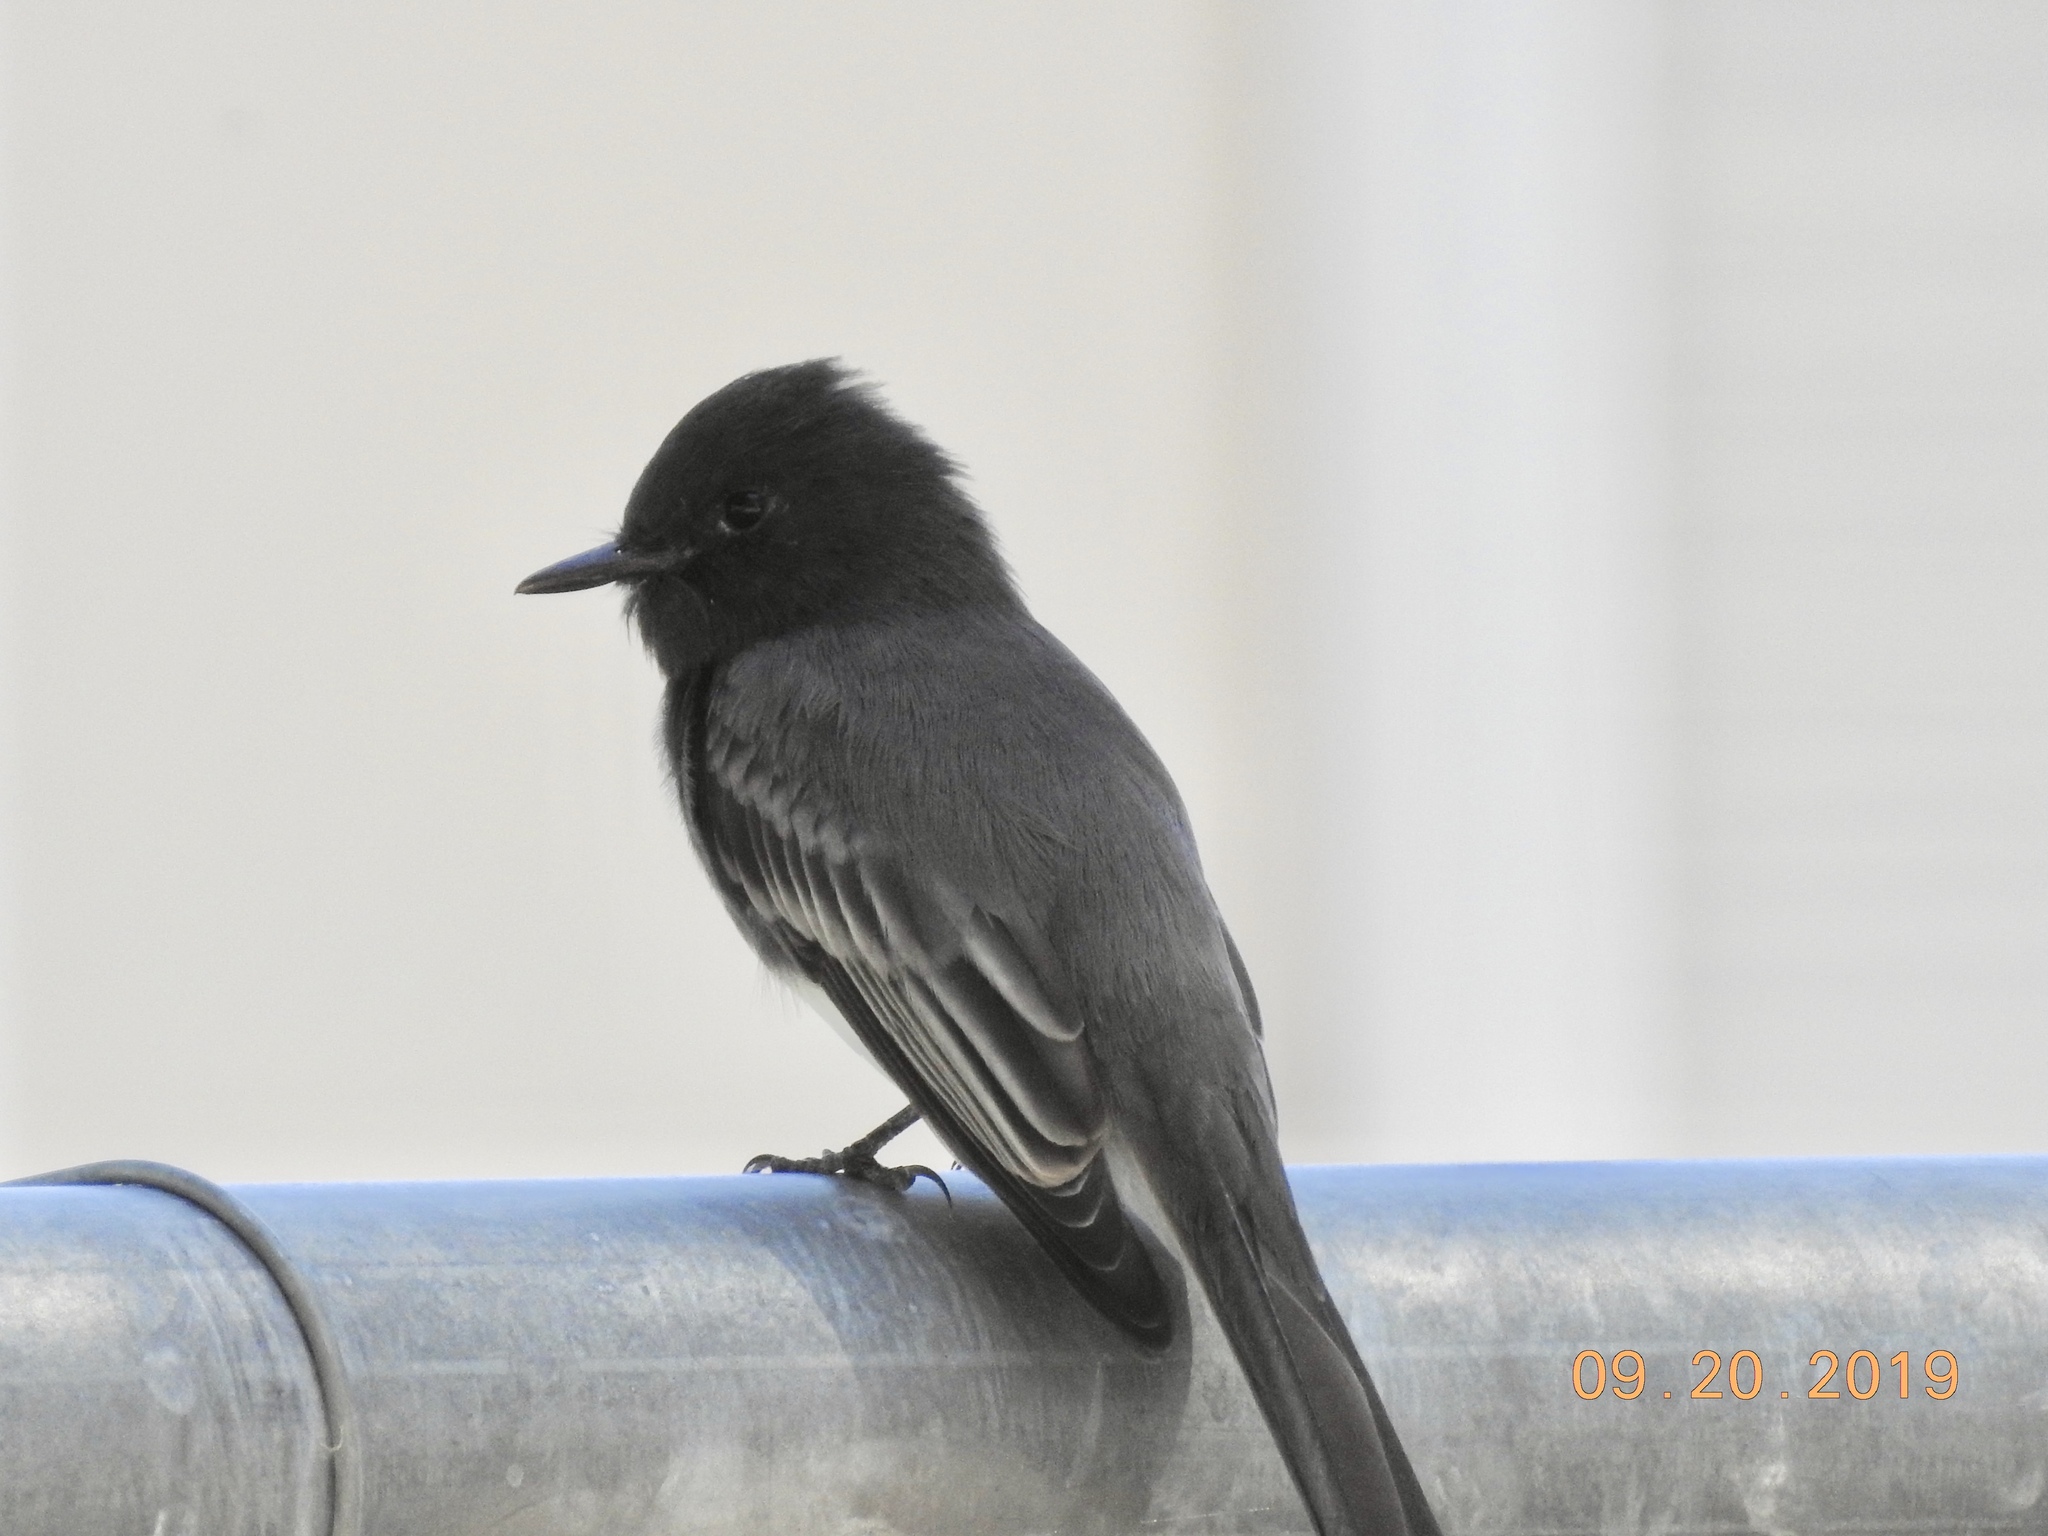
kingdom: Animalia
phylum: Chordata
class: Aves
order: Passeriformes
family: Tyrannidae
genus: Sayornis
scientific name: Sayornis nigricans
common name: Black phoebe
